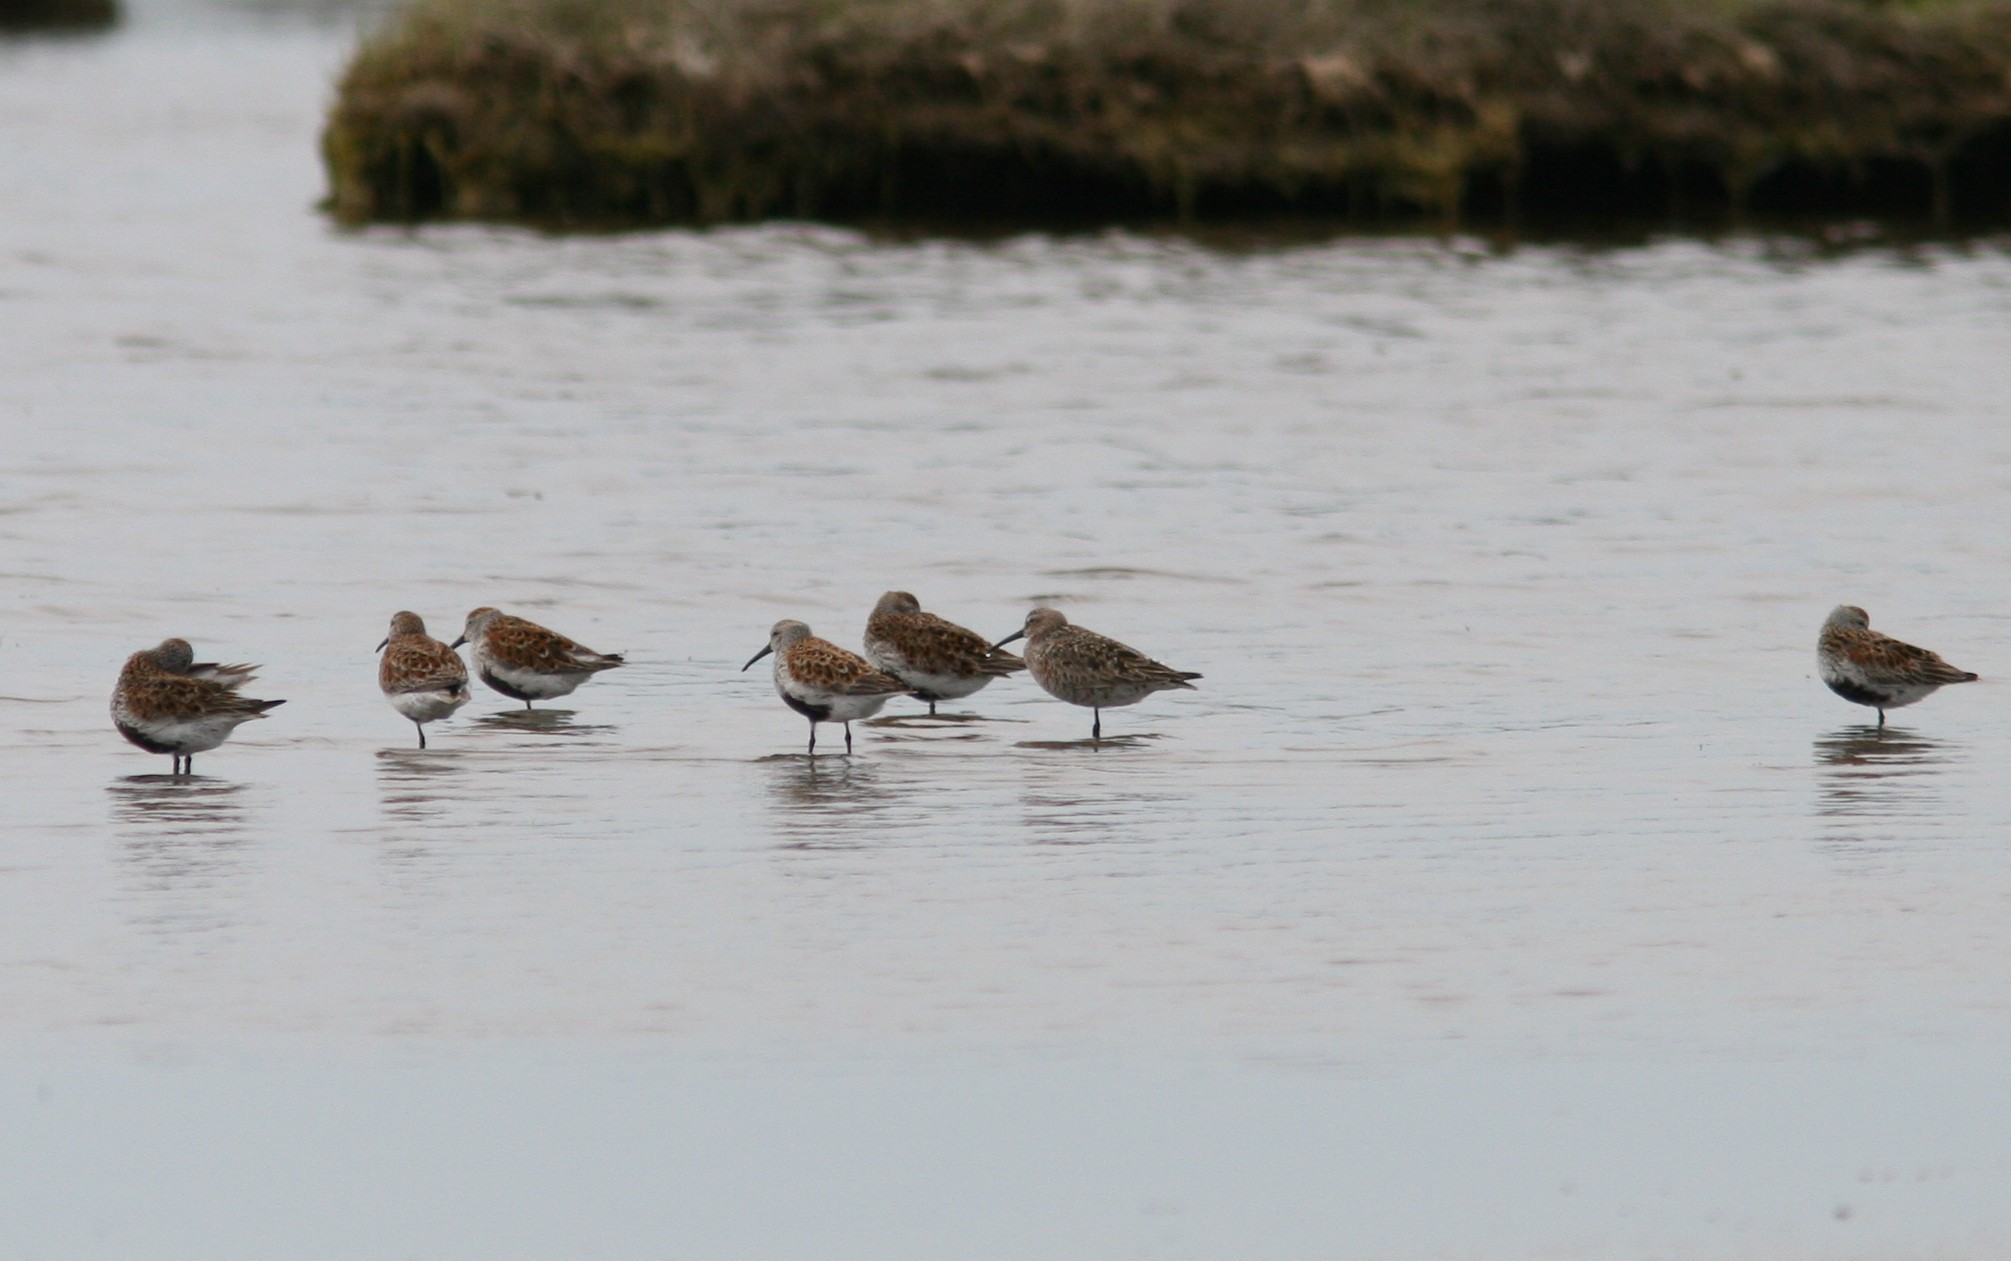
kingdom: Animalia
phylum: Chordata
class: Aves
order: Charadriiformes
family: Scolopacidae
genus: Calidris
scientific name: Calidris ferruginea
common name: Curlew sandpiper
